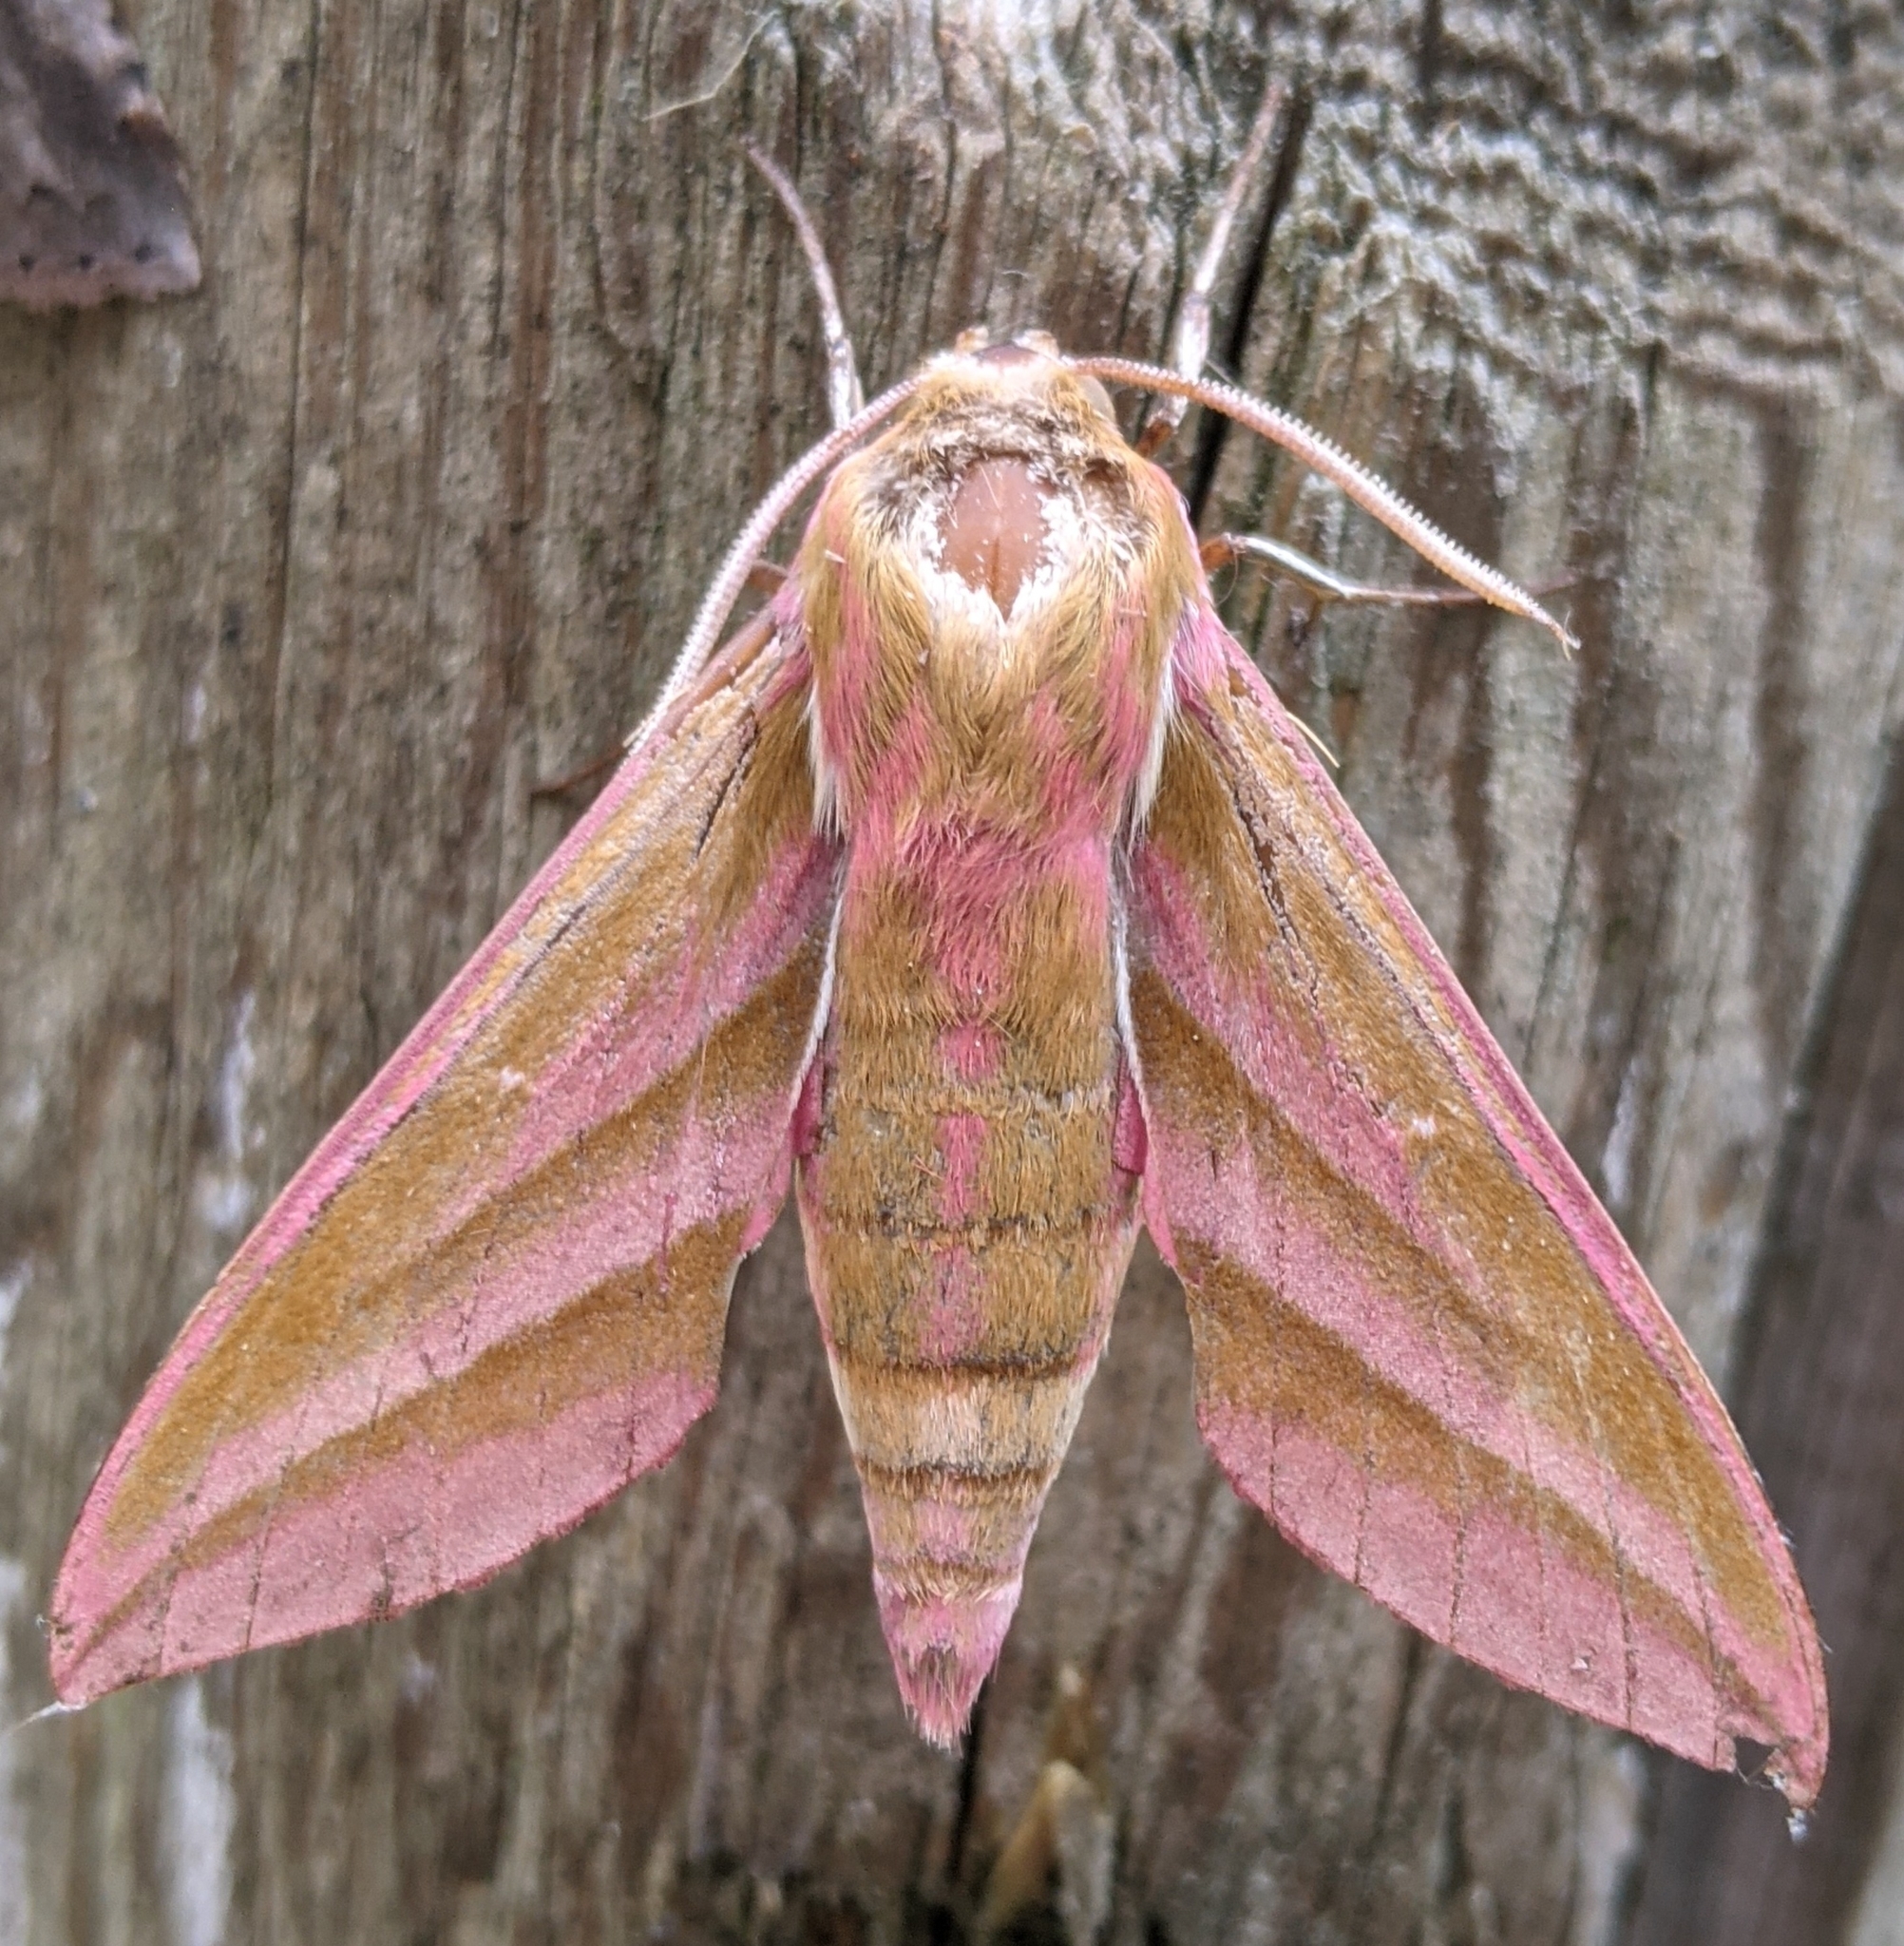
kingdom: Animalia
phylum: Arthropoda
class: Insecta
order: Lepidoptera
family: Sphingidae
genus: Deilephila
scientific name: Deilephila elpenor
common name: Elephant hawk-moth
